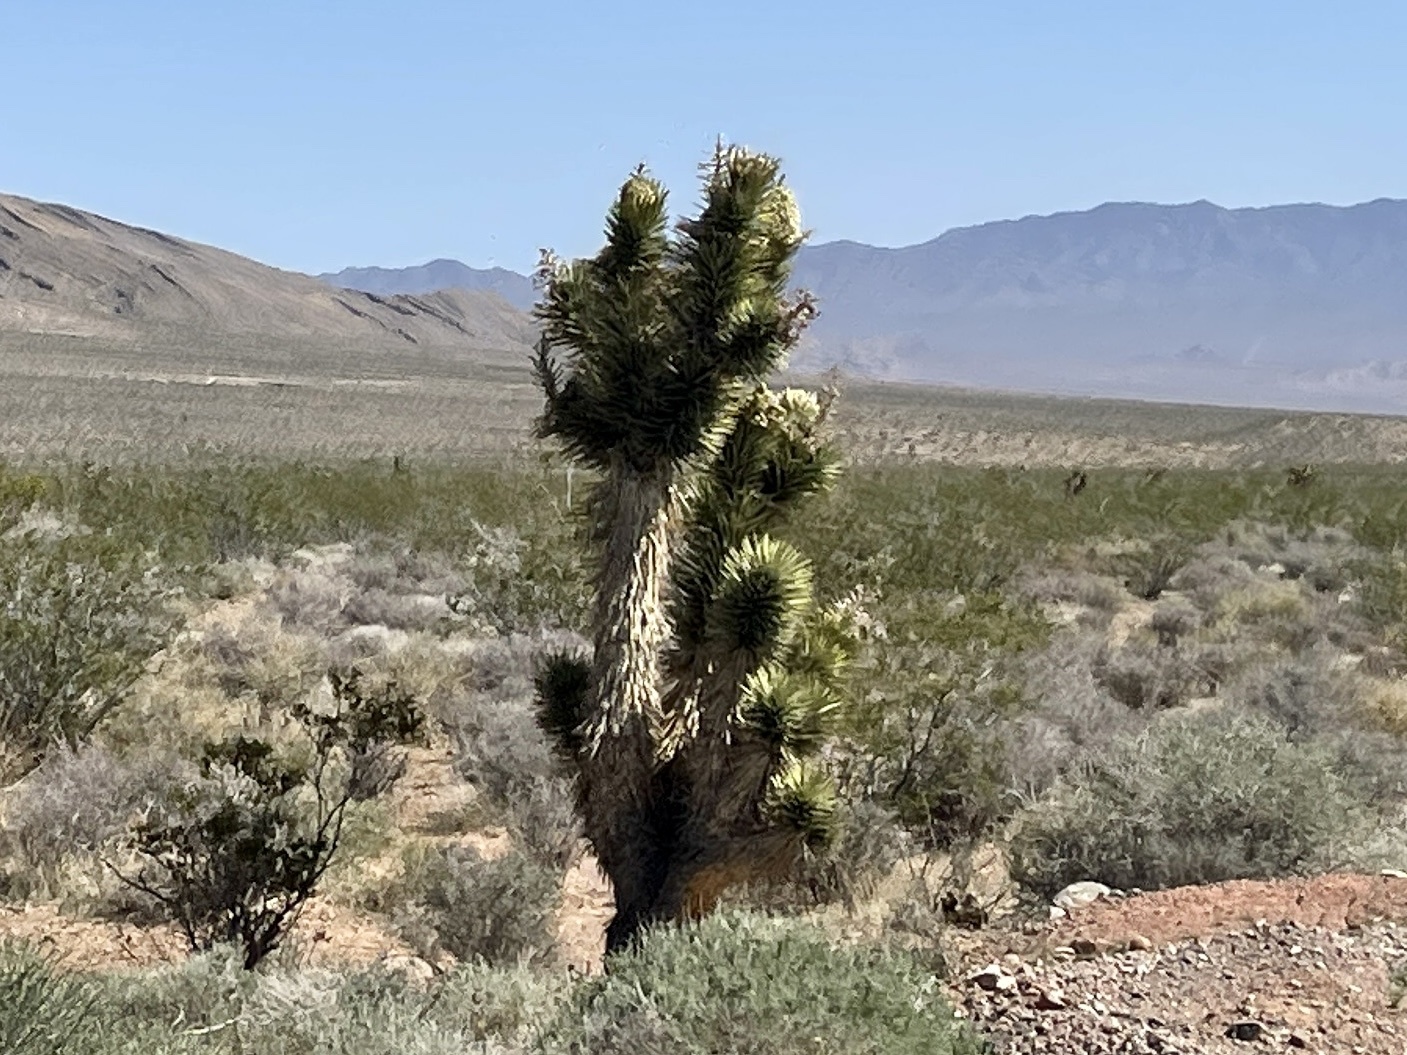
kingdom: Plantae
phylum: Tracheophyta
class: Liliopsida
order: Asparagales
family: Asparagaceae
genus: Yucca
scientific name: Yucca brevifolia
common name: Joshua tree
